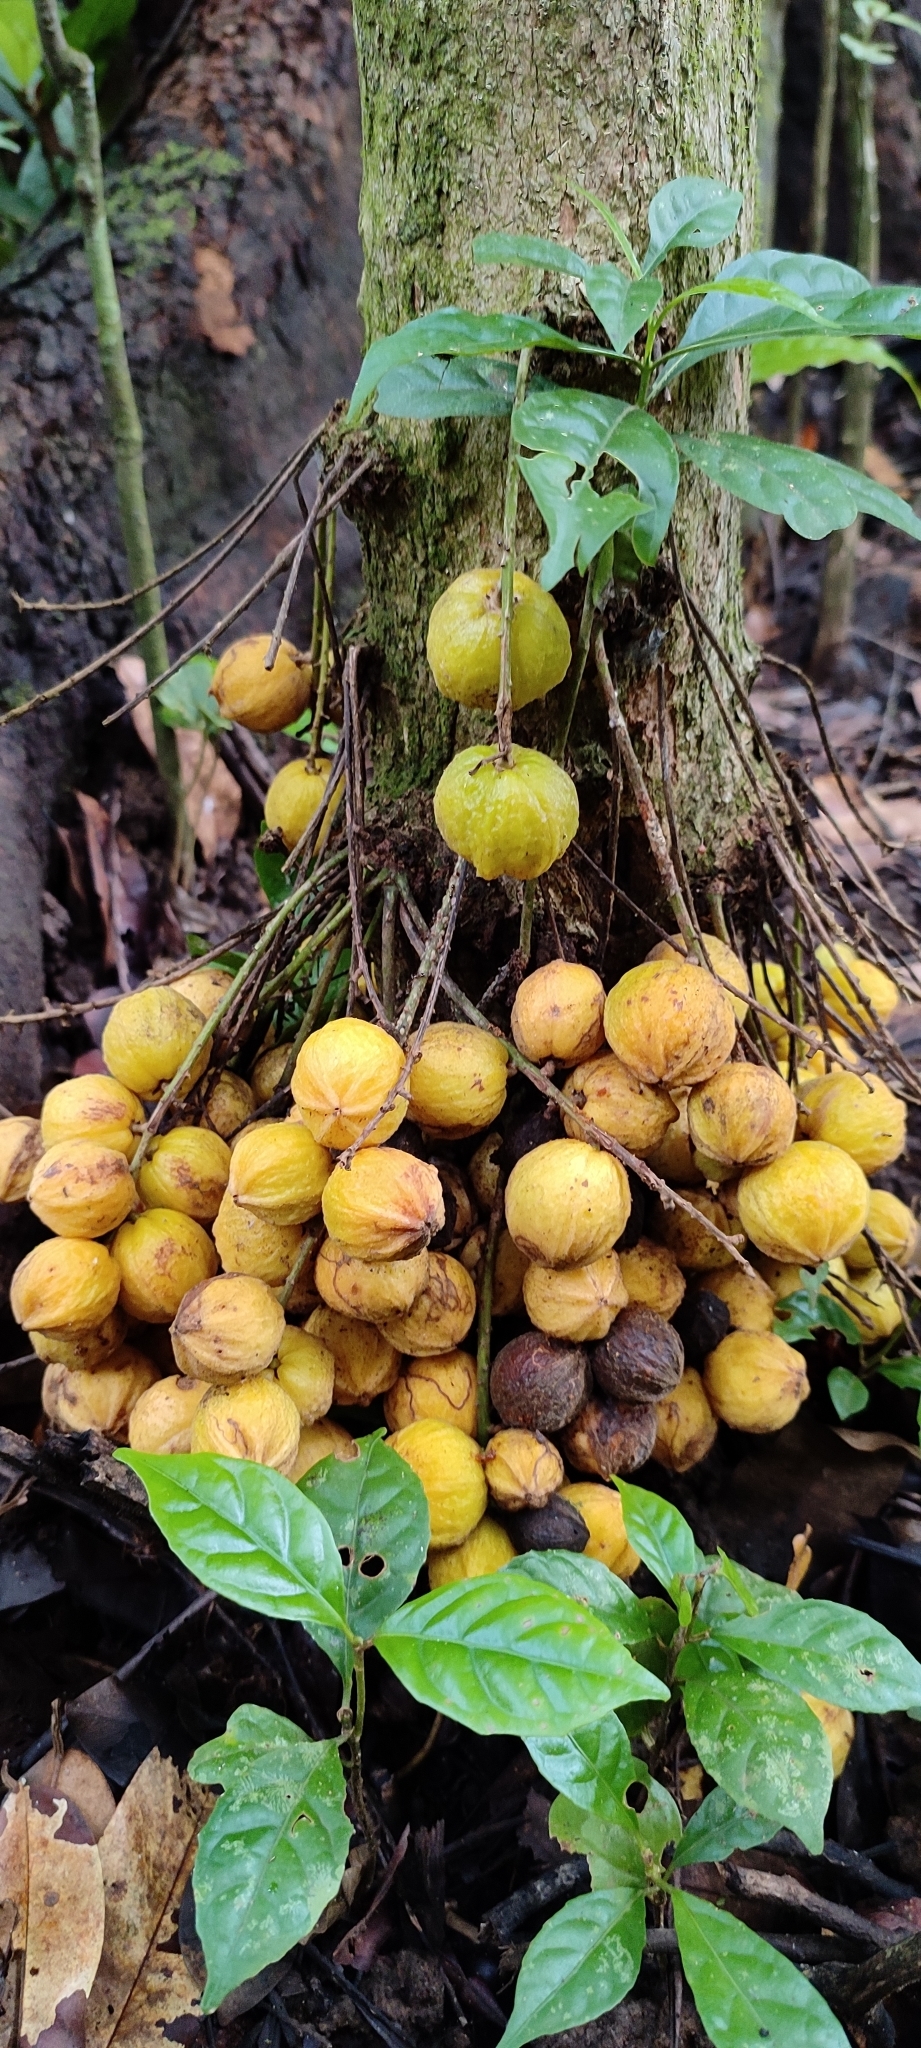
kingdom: Plantae
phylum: Tracheophyta
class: Magnoliopsida
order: Malpighiales
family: Phyllanthaceae
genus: Baccaurea
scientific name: Baccaurea courtallensis
